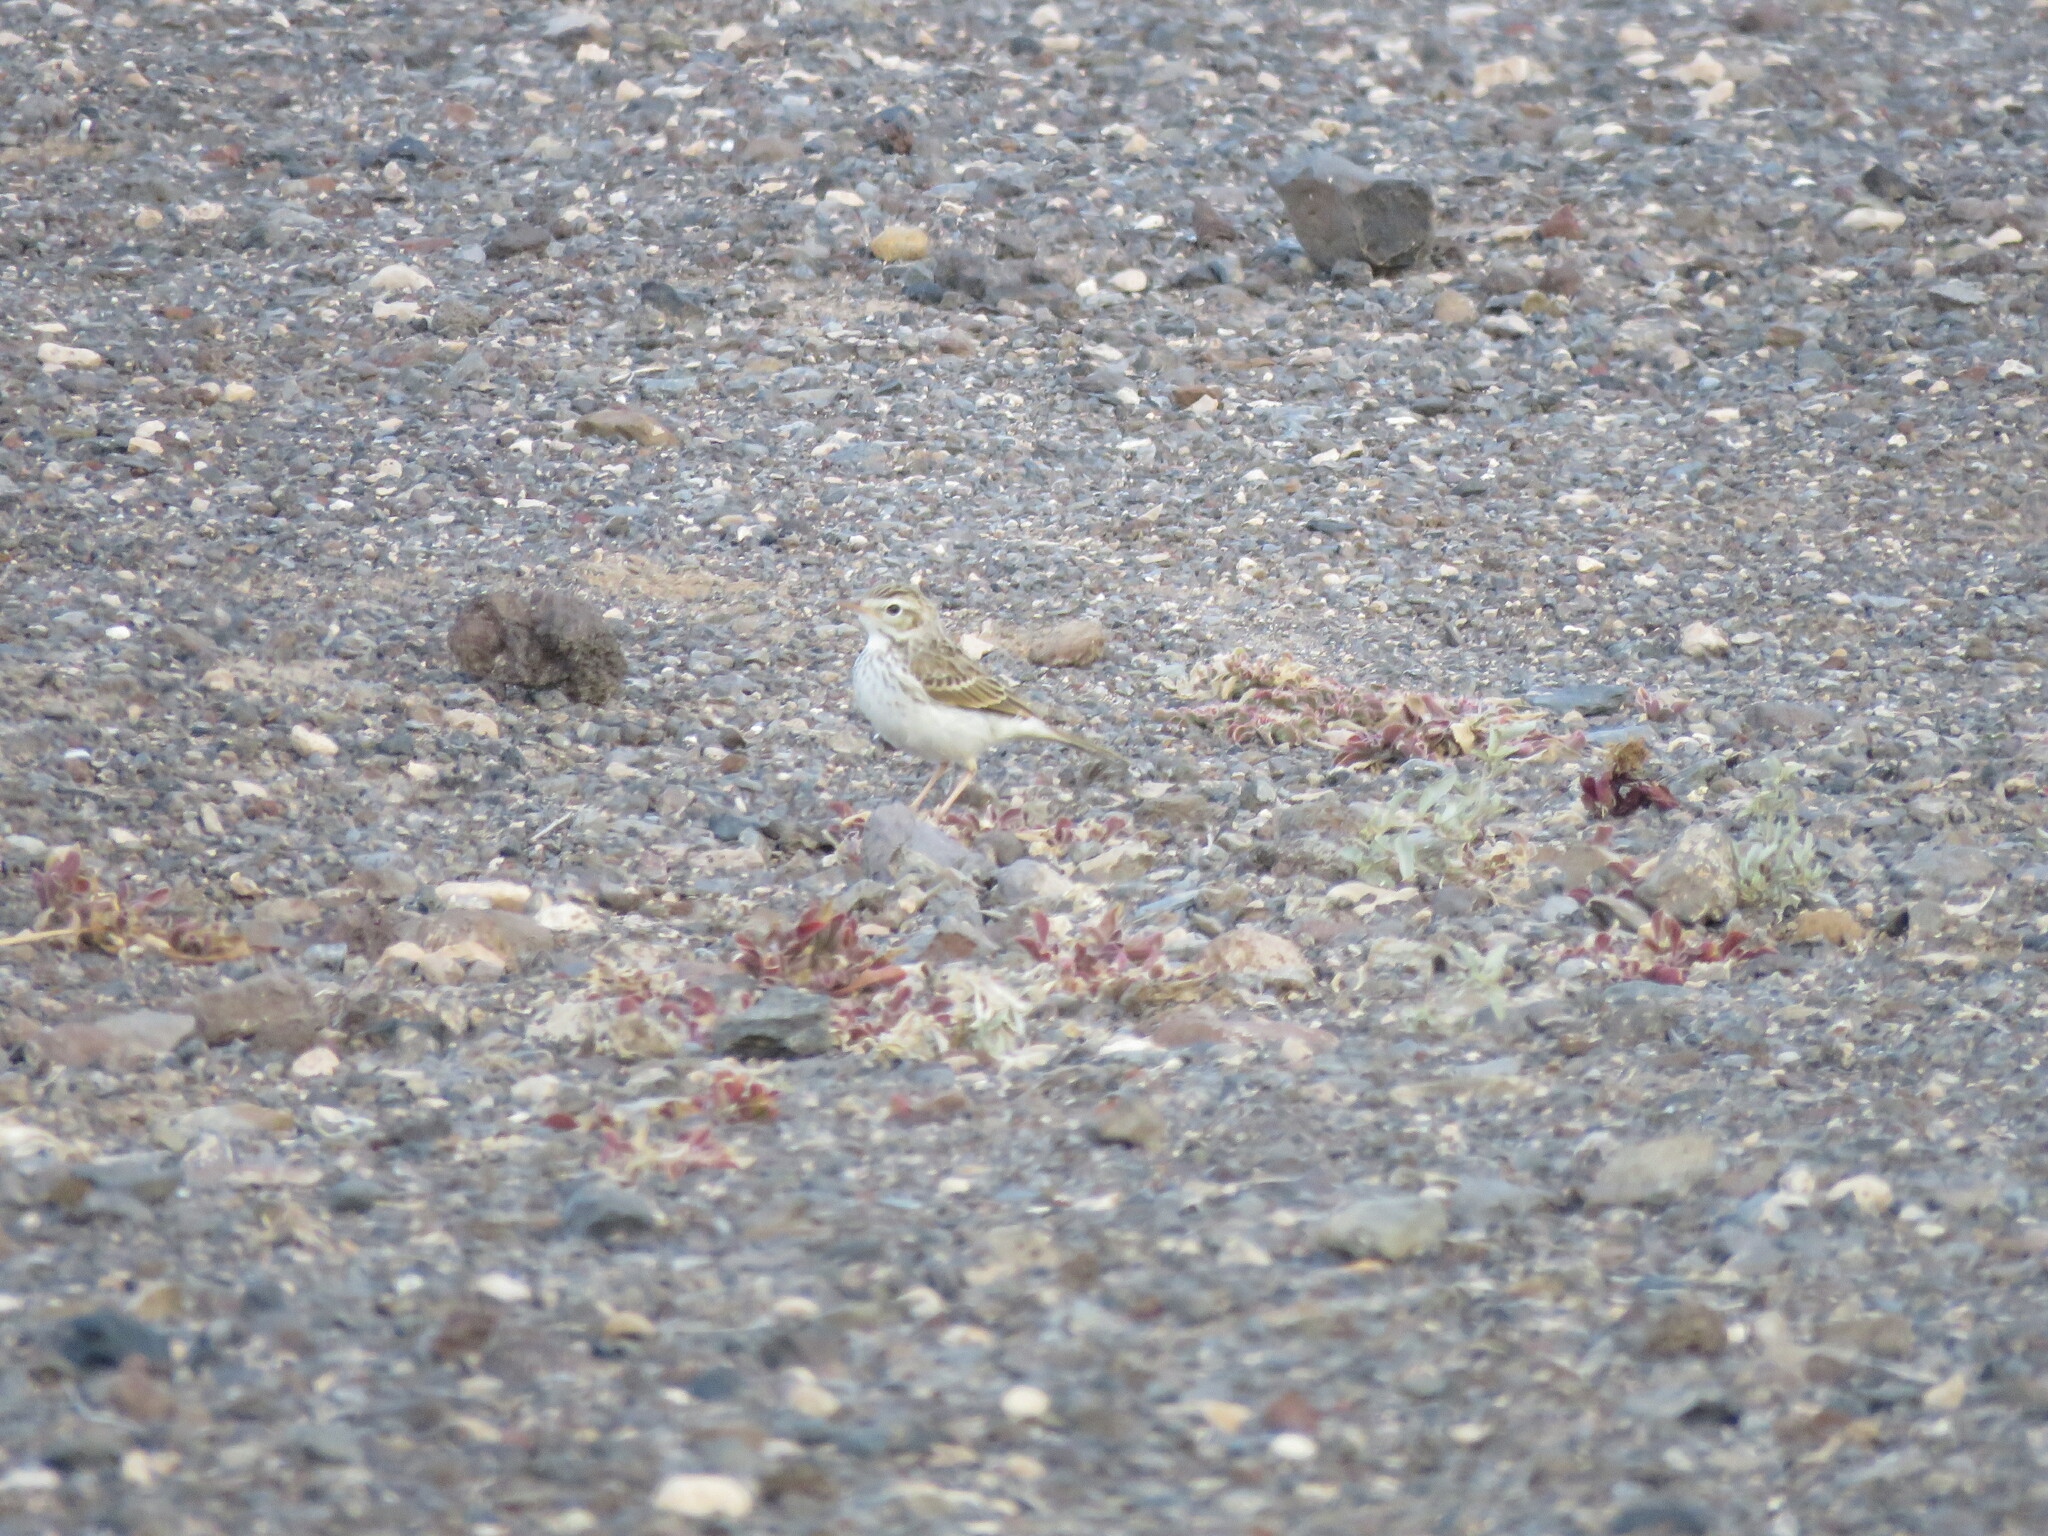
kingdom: Animalia
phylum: Chordata
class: Aves
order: Passeriformes
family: Motacillidae
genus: Anthus
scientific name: Anthus berthelotii
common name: Berthelot's pipit
